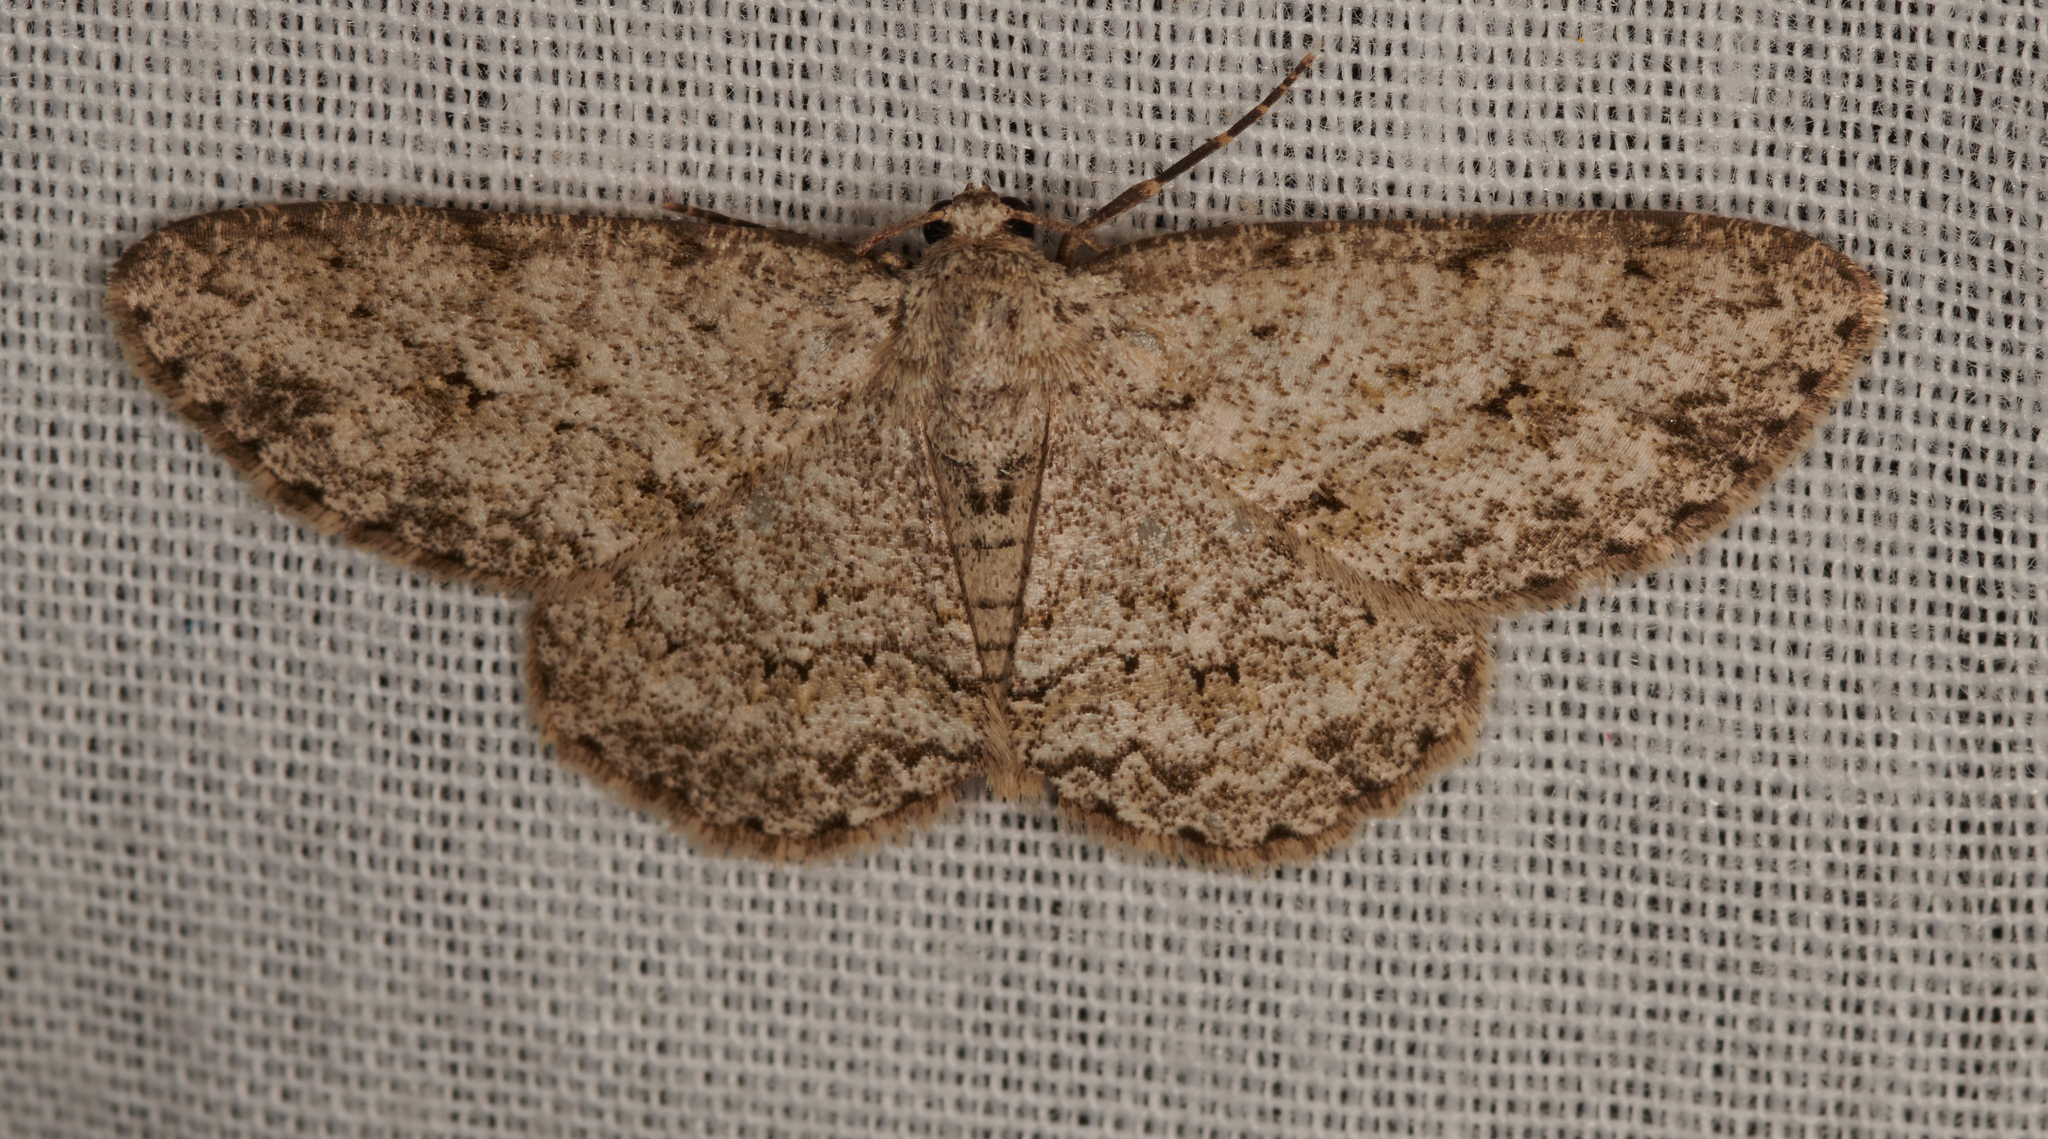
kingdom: Animalia
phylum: Arthropoda
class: Insecta
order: Lepidoptera
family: Geometridae
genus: Ectropis
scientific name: Ectropis crepuscularia
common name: Engrailed
